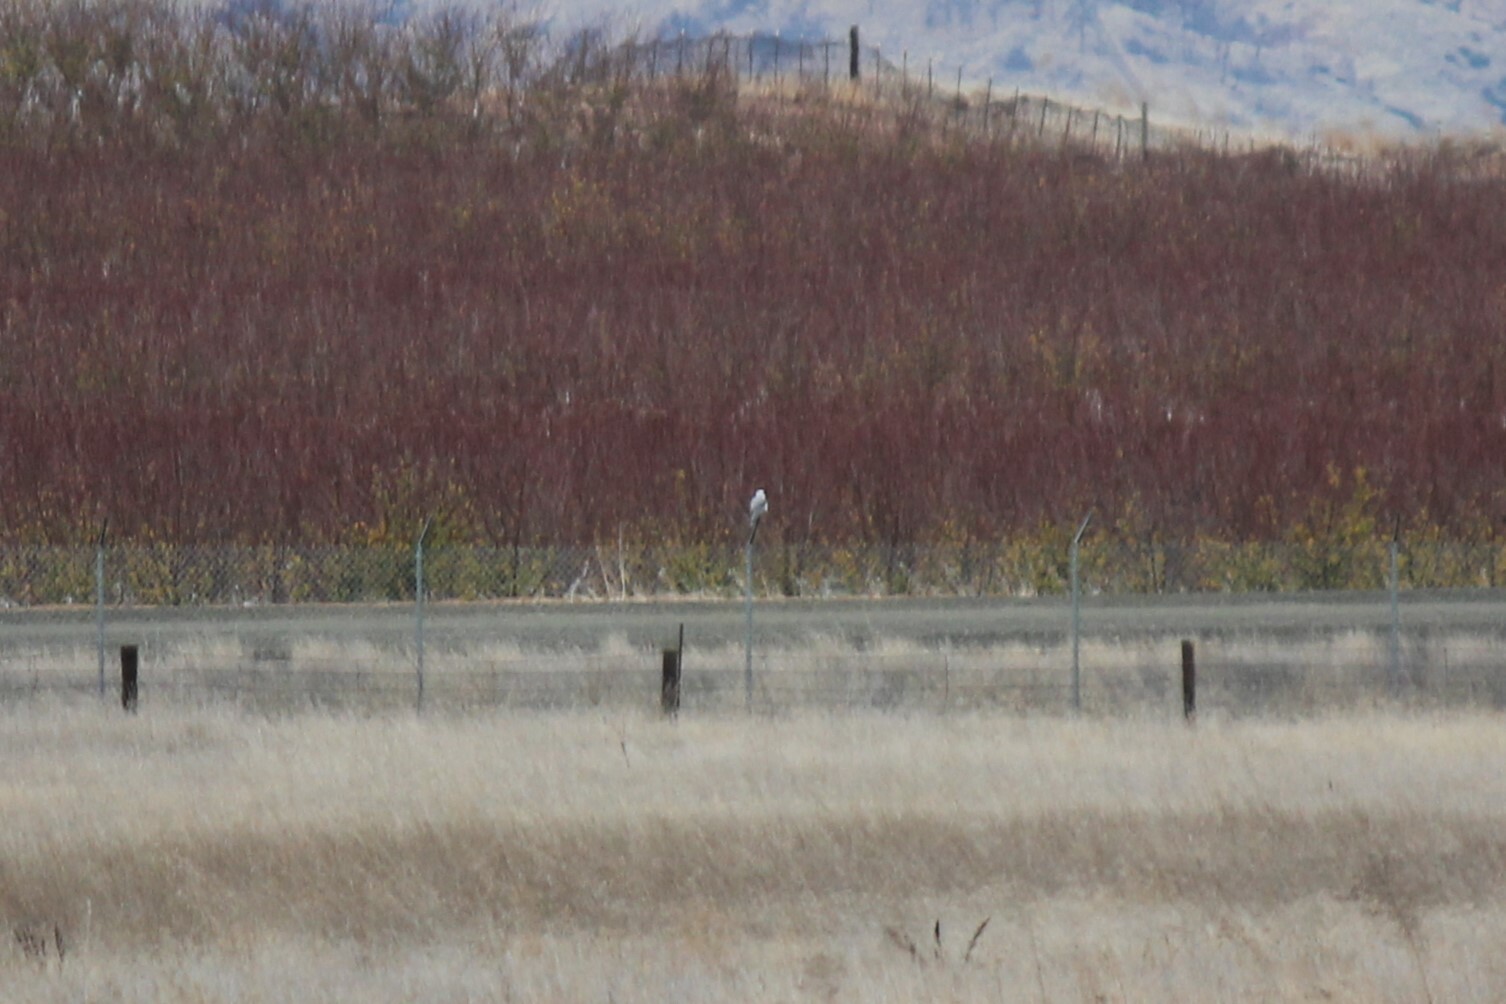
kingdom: Animalia
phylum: Chordata
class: Aves
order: Accipitriformes
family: Accipitridae
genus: Elanus
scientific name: Elanus leucurus
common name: White-tailed kite
